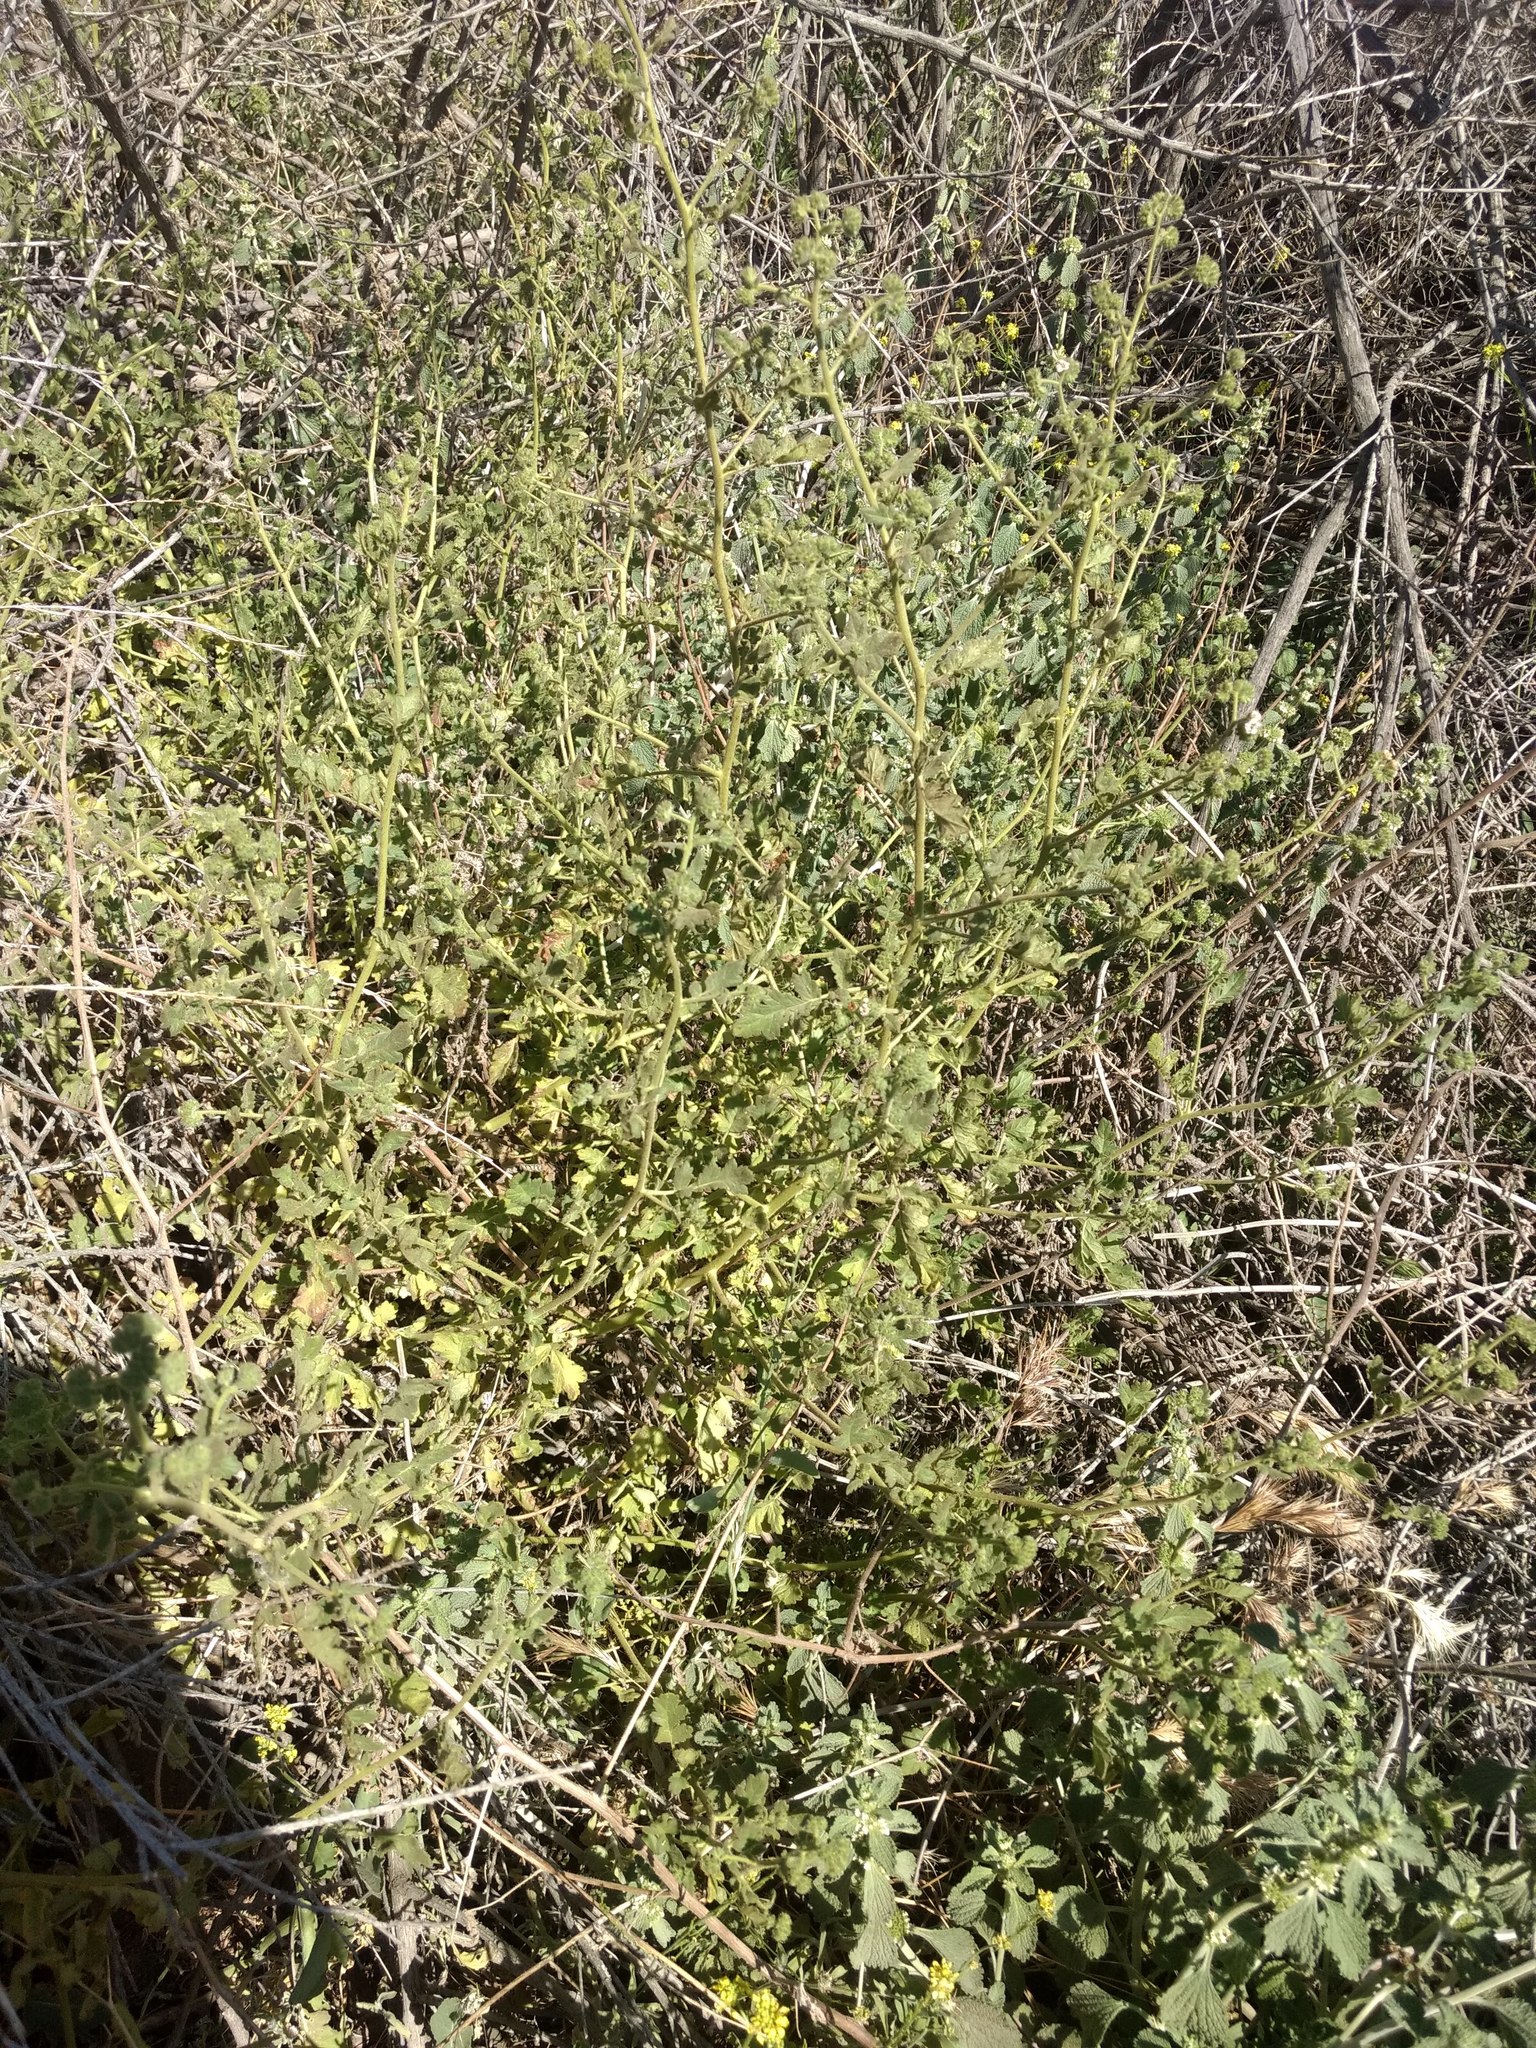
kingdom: Plantae
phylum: Tracheophyta
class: Magnoliopsida
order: Boraginales
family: Hydrophyllaceae
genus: Phacelia
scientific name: Phacelia ramosissima
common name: Branching phacelia
